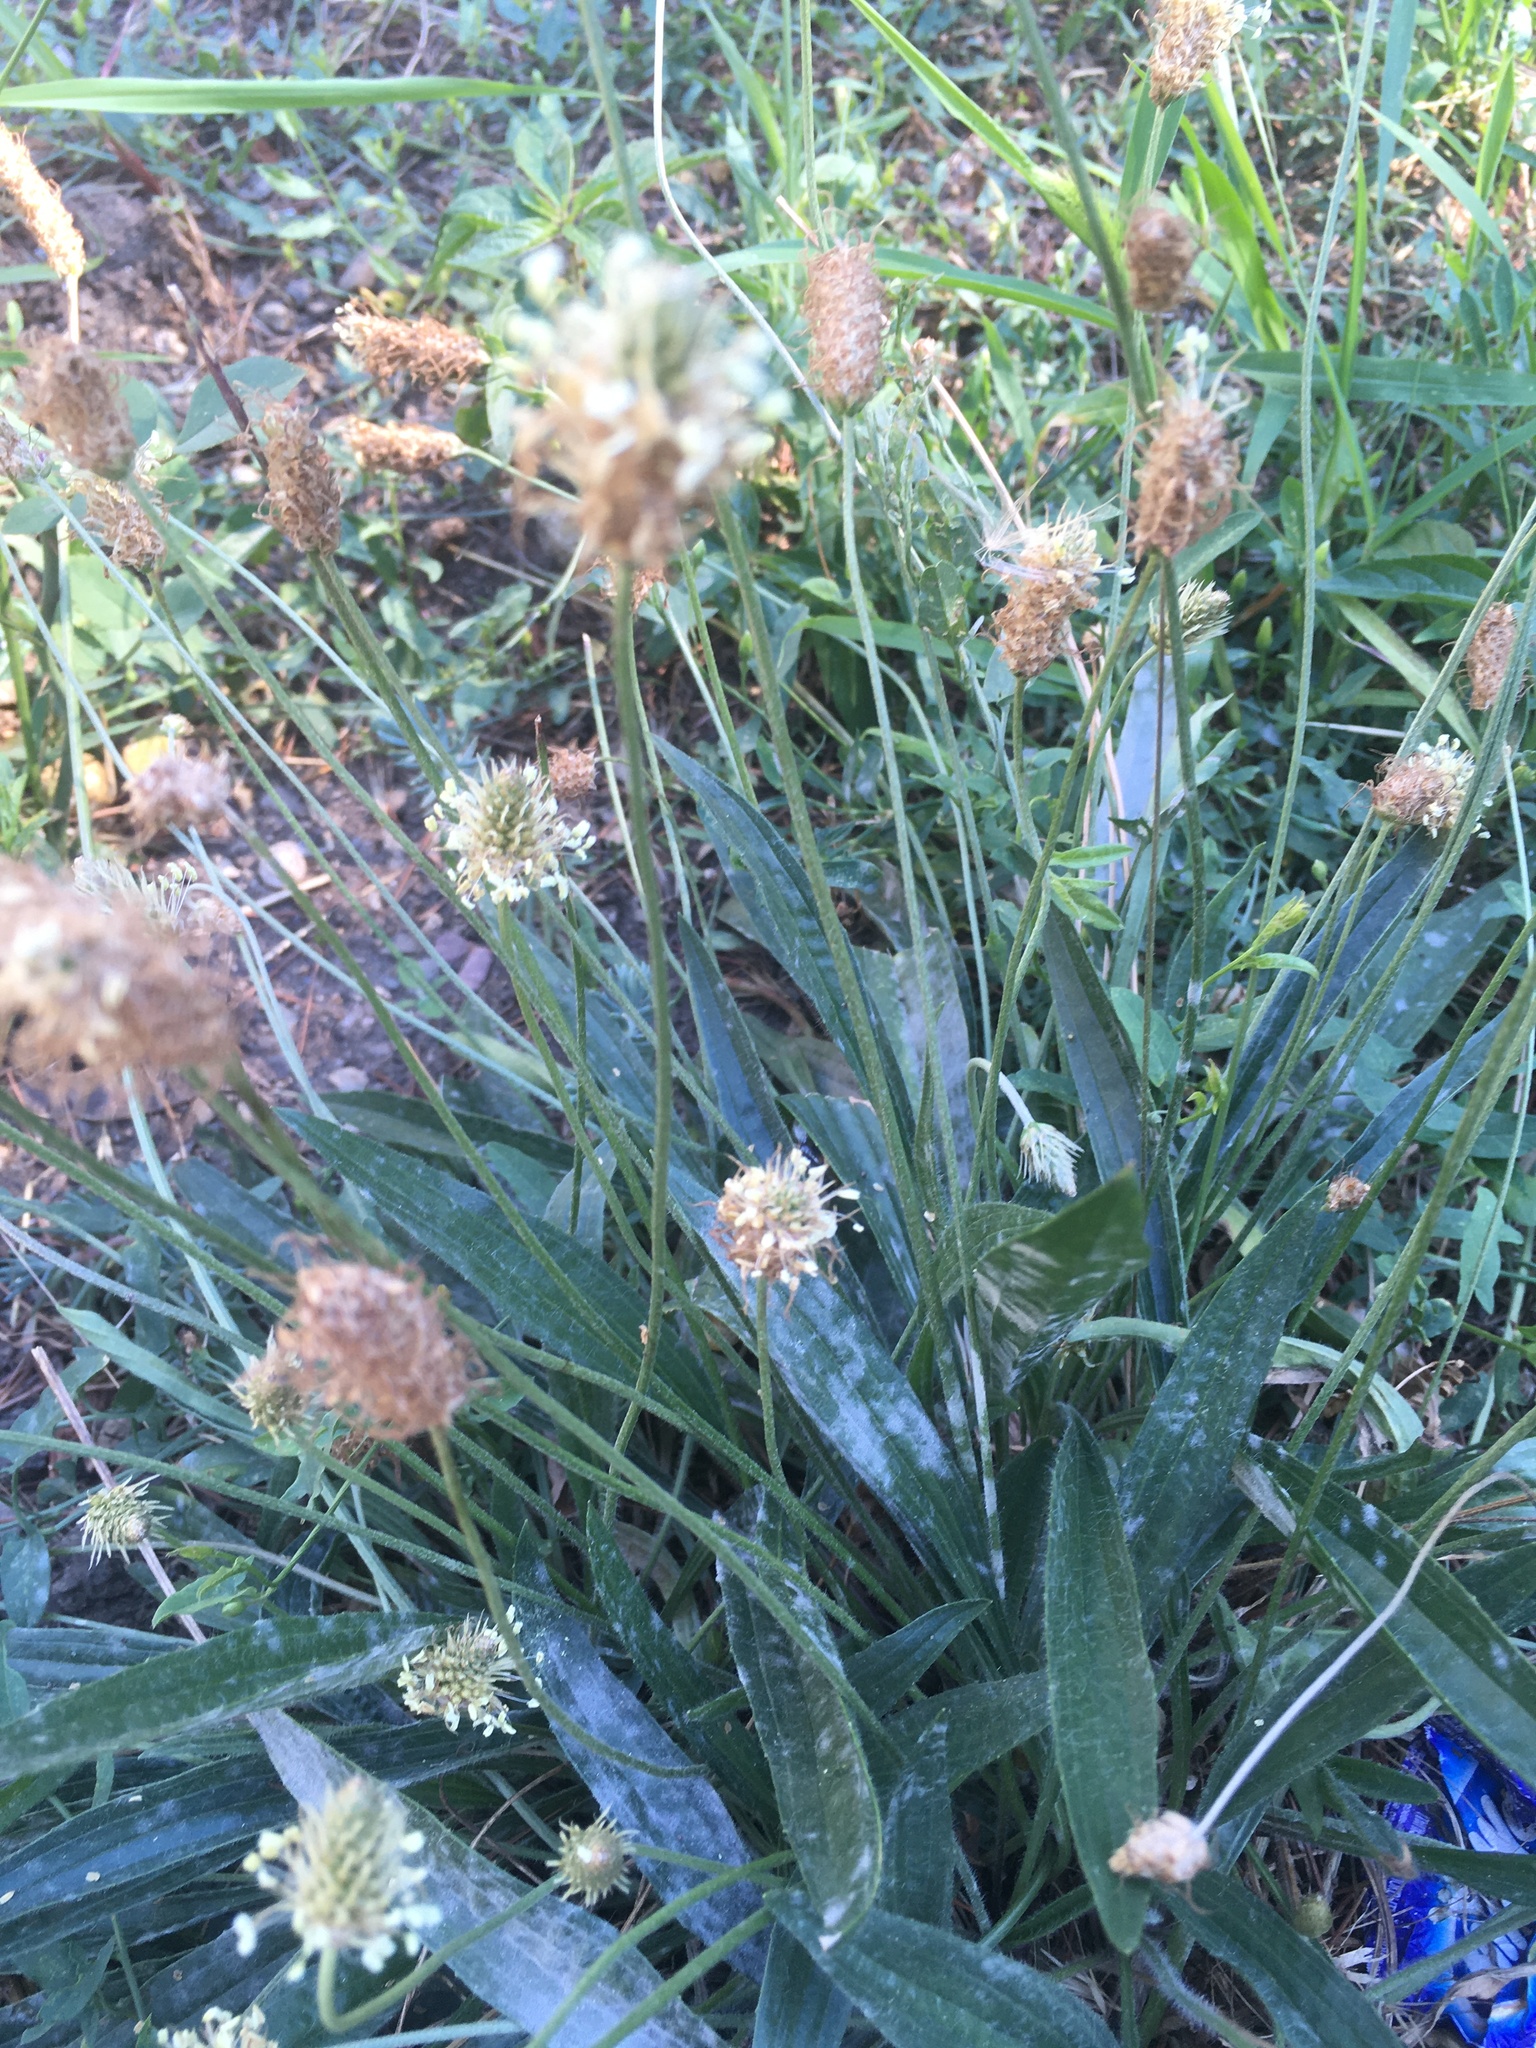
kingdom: Plantae
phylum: Tracheophyta
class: Magnoliopsida
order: Lamiales
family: Plantaginaceae
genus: Plantago
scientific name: Plantago lanceolata
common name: Ribwort plantain
